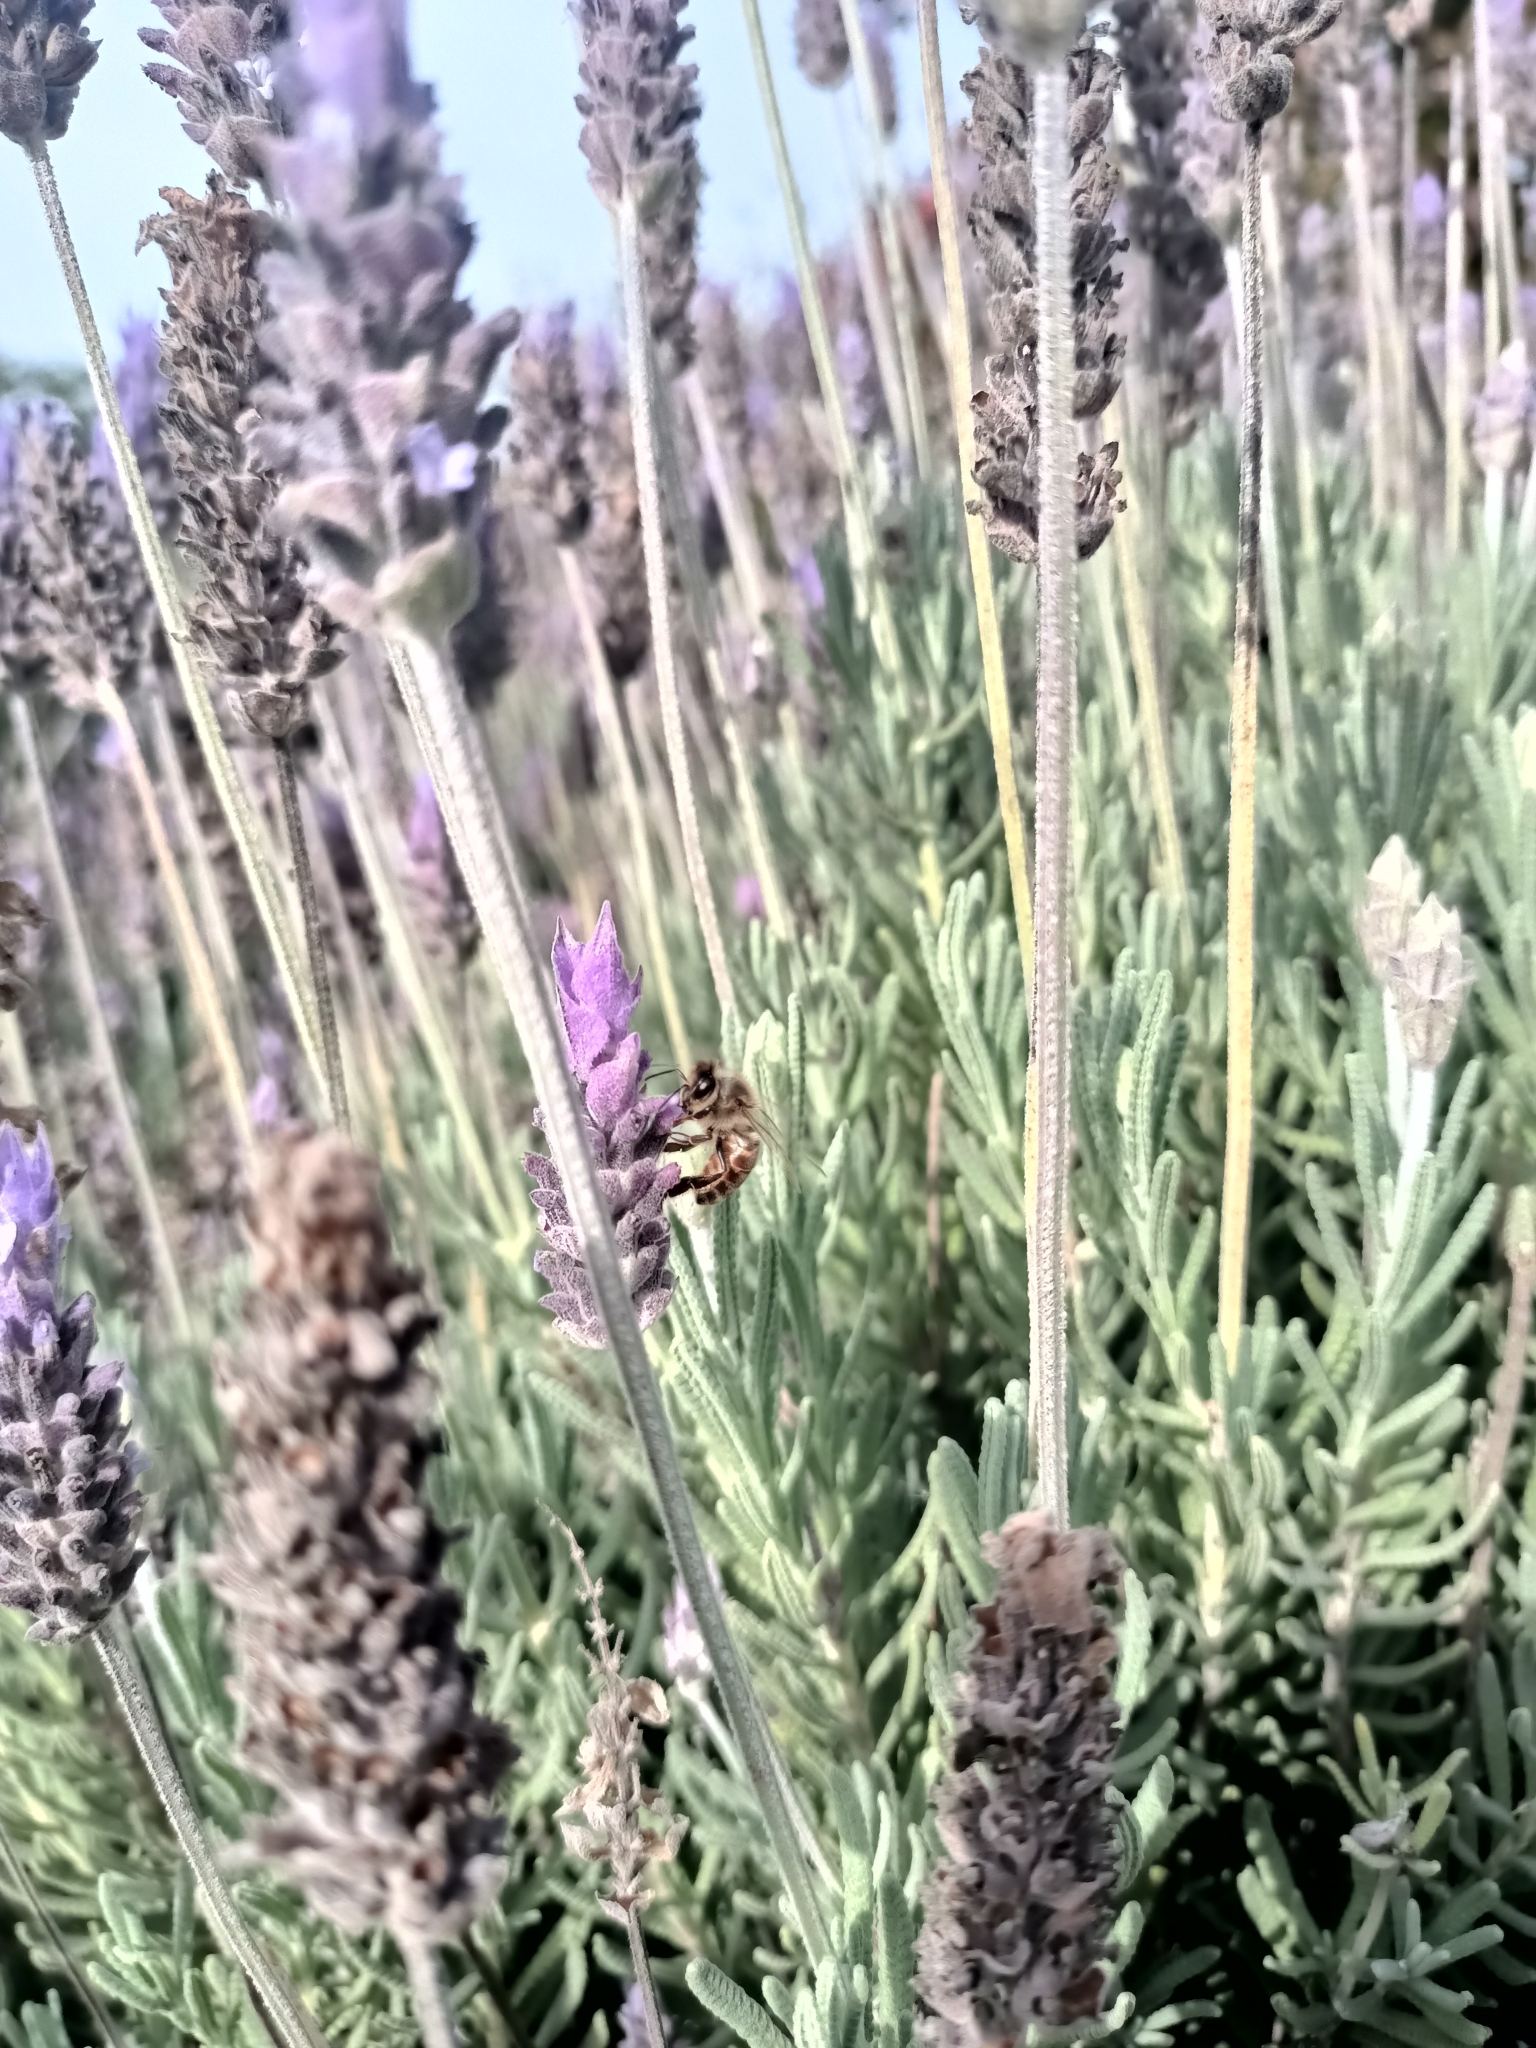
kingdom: Animalia
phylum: Arthropoda
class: Insecta
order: Hymenoptera
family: Apidae
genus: Apis
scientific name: Apis mellifera
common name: Honey bee
